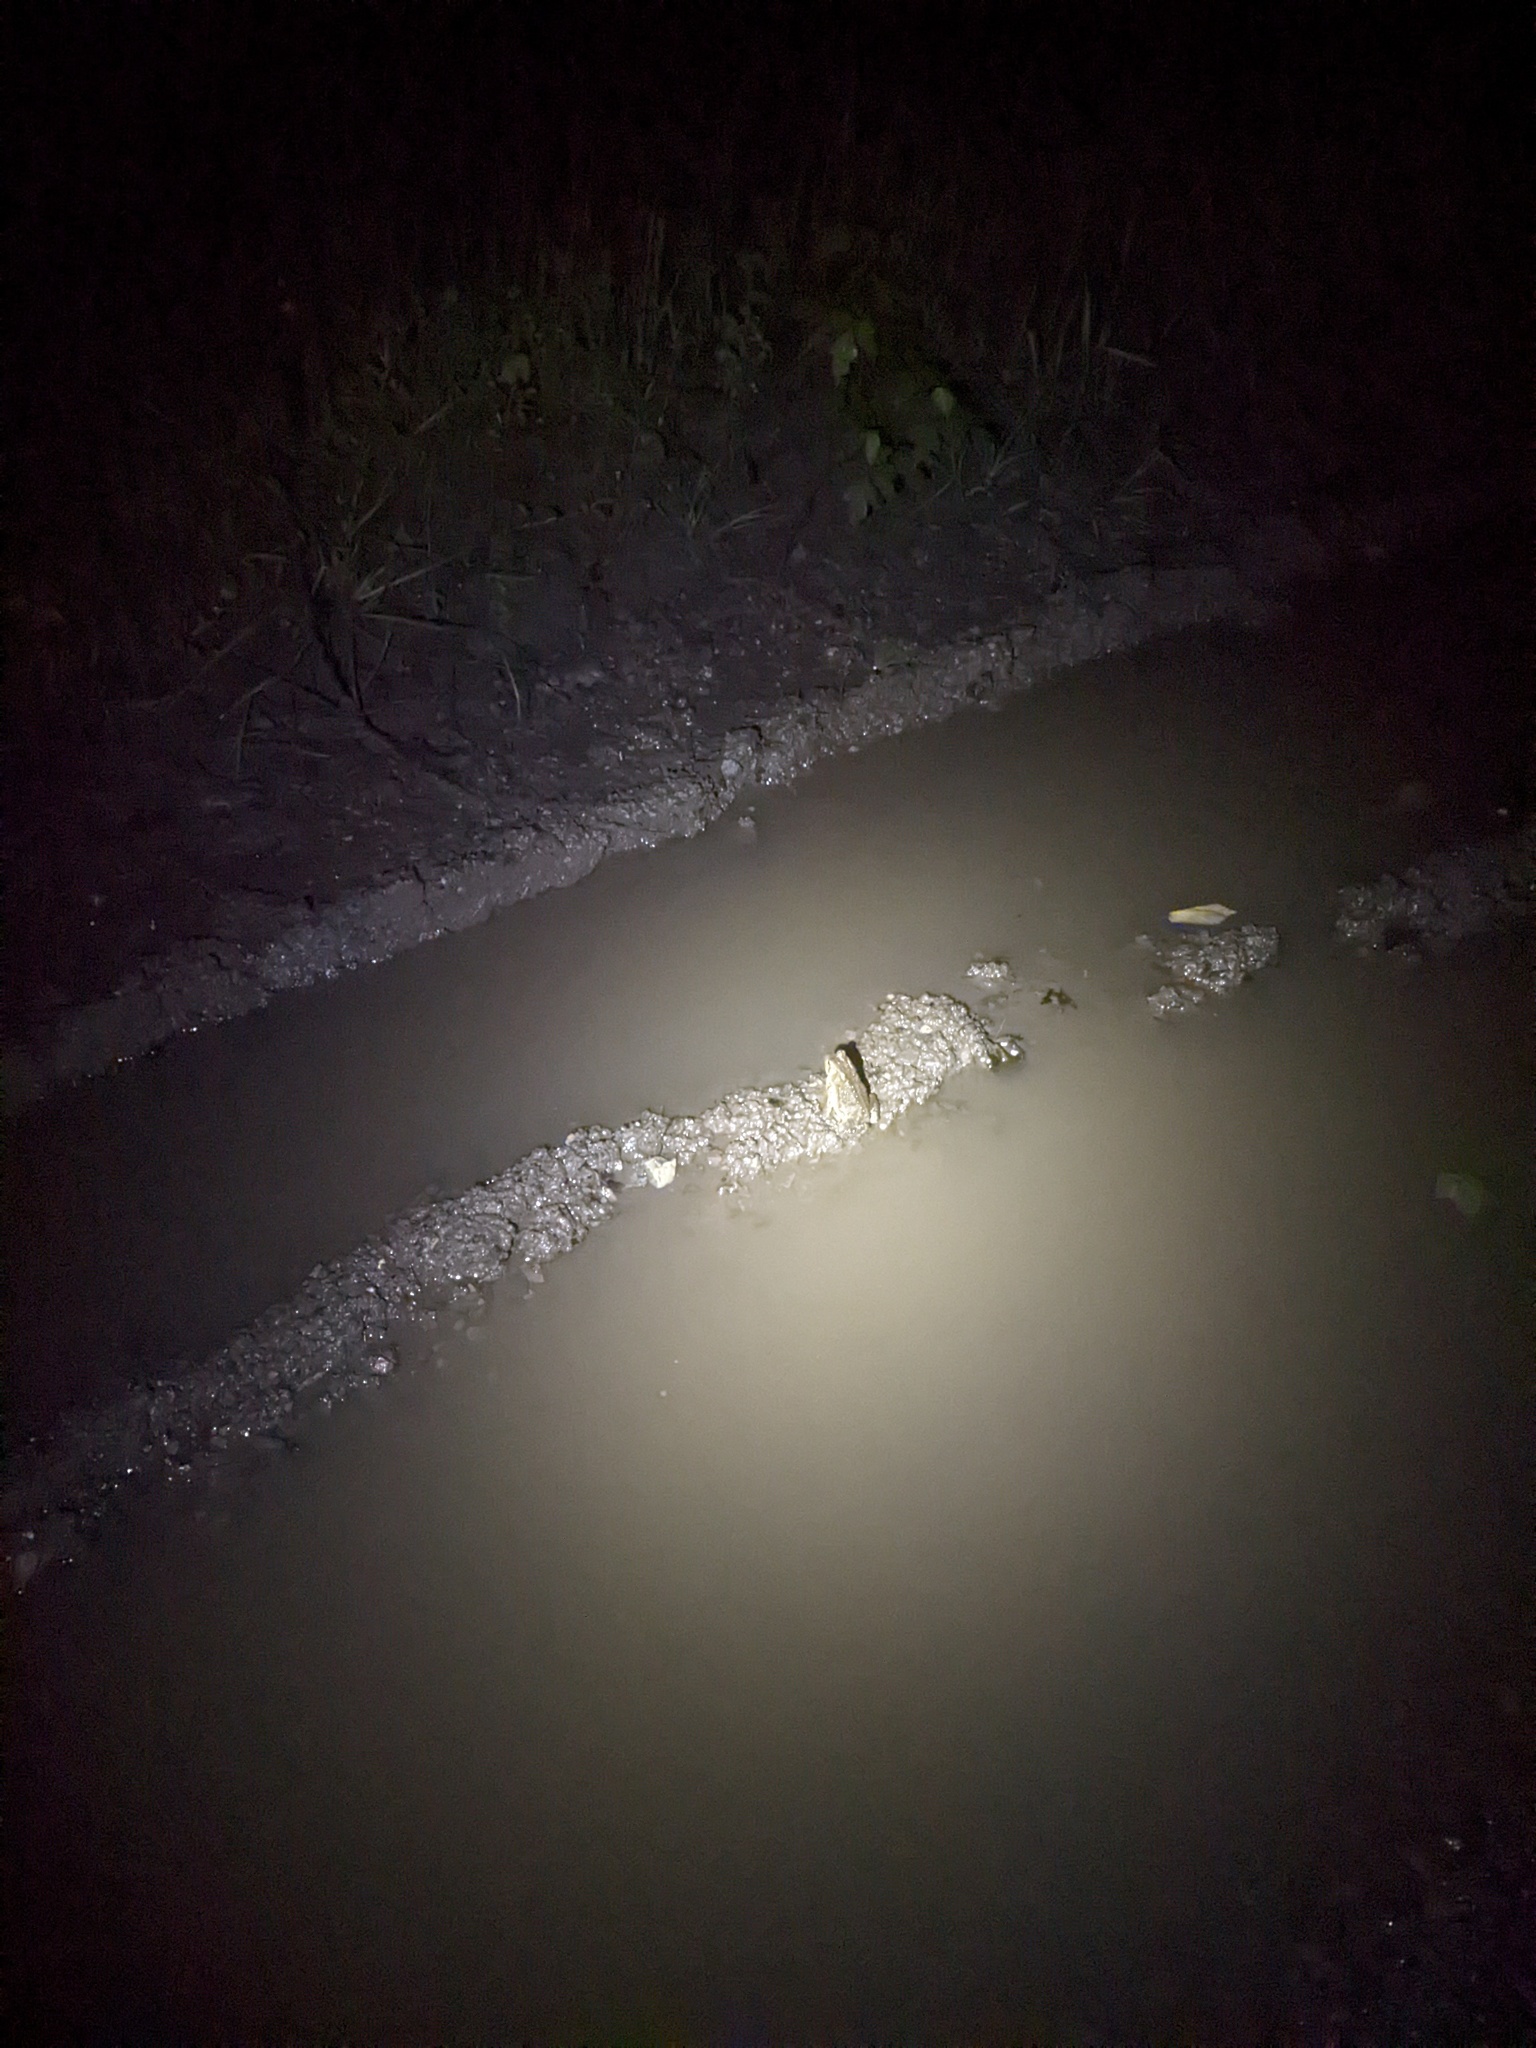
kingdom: Animalia
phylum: Chordata
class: Amphibia
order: Anura
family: Bufonidae
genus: Anaxyrus
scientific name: Anaxyrus americanus
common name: American toad
